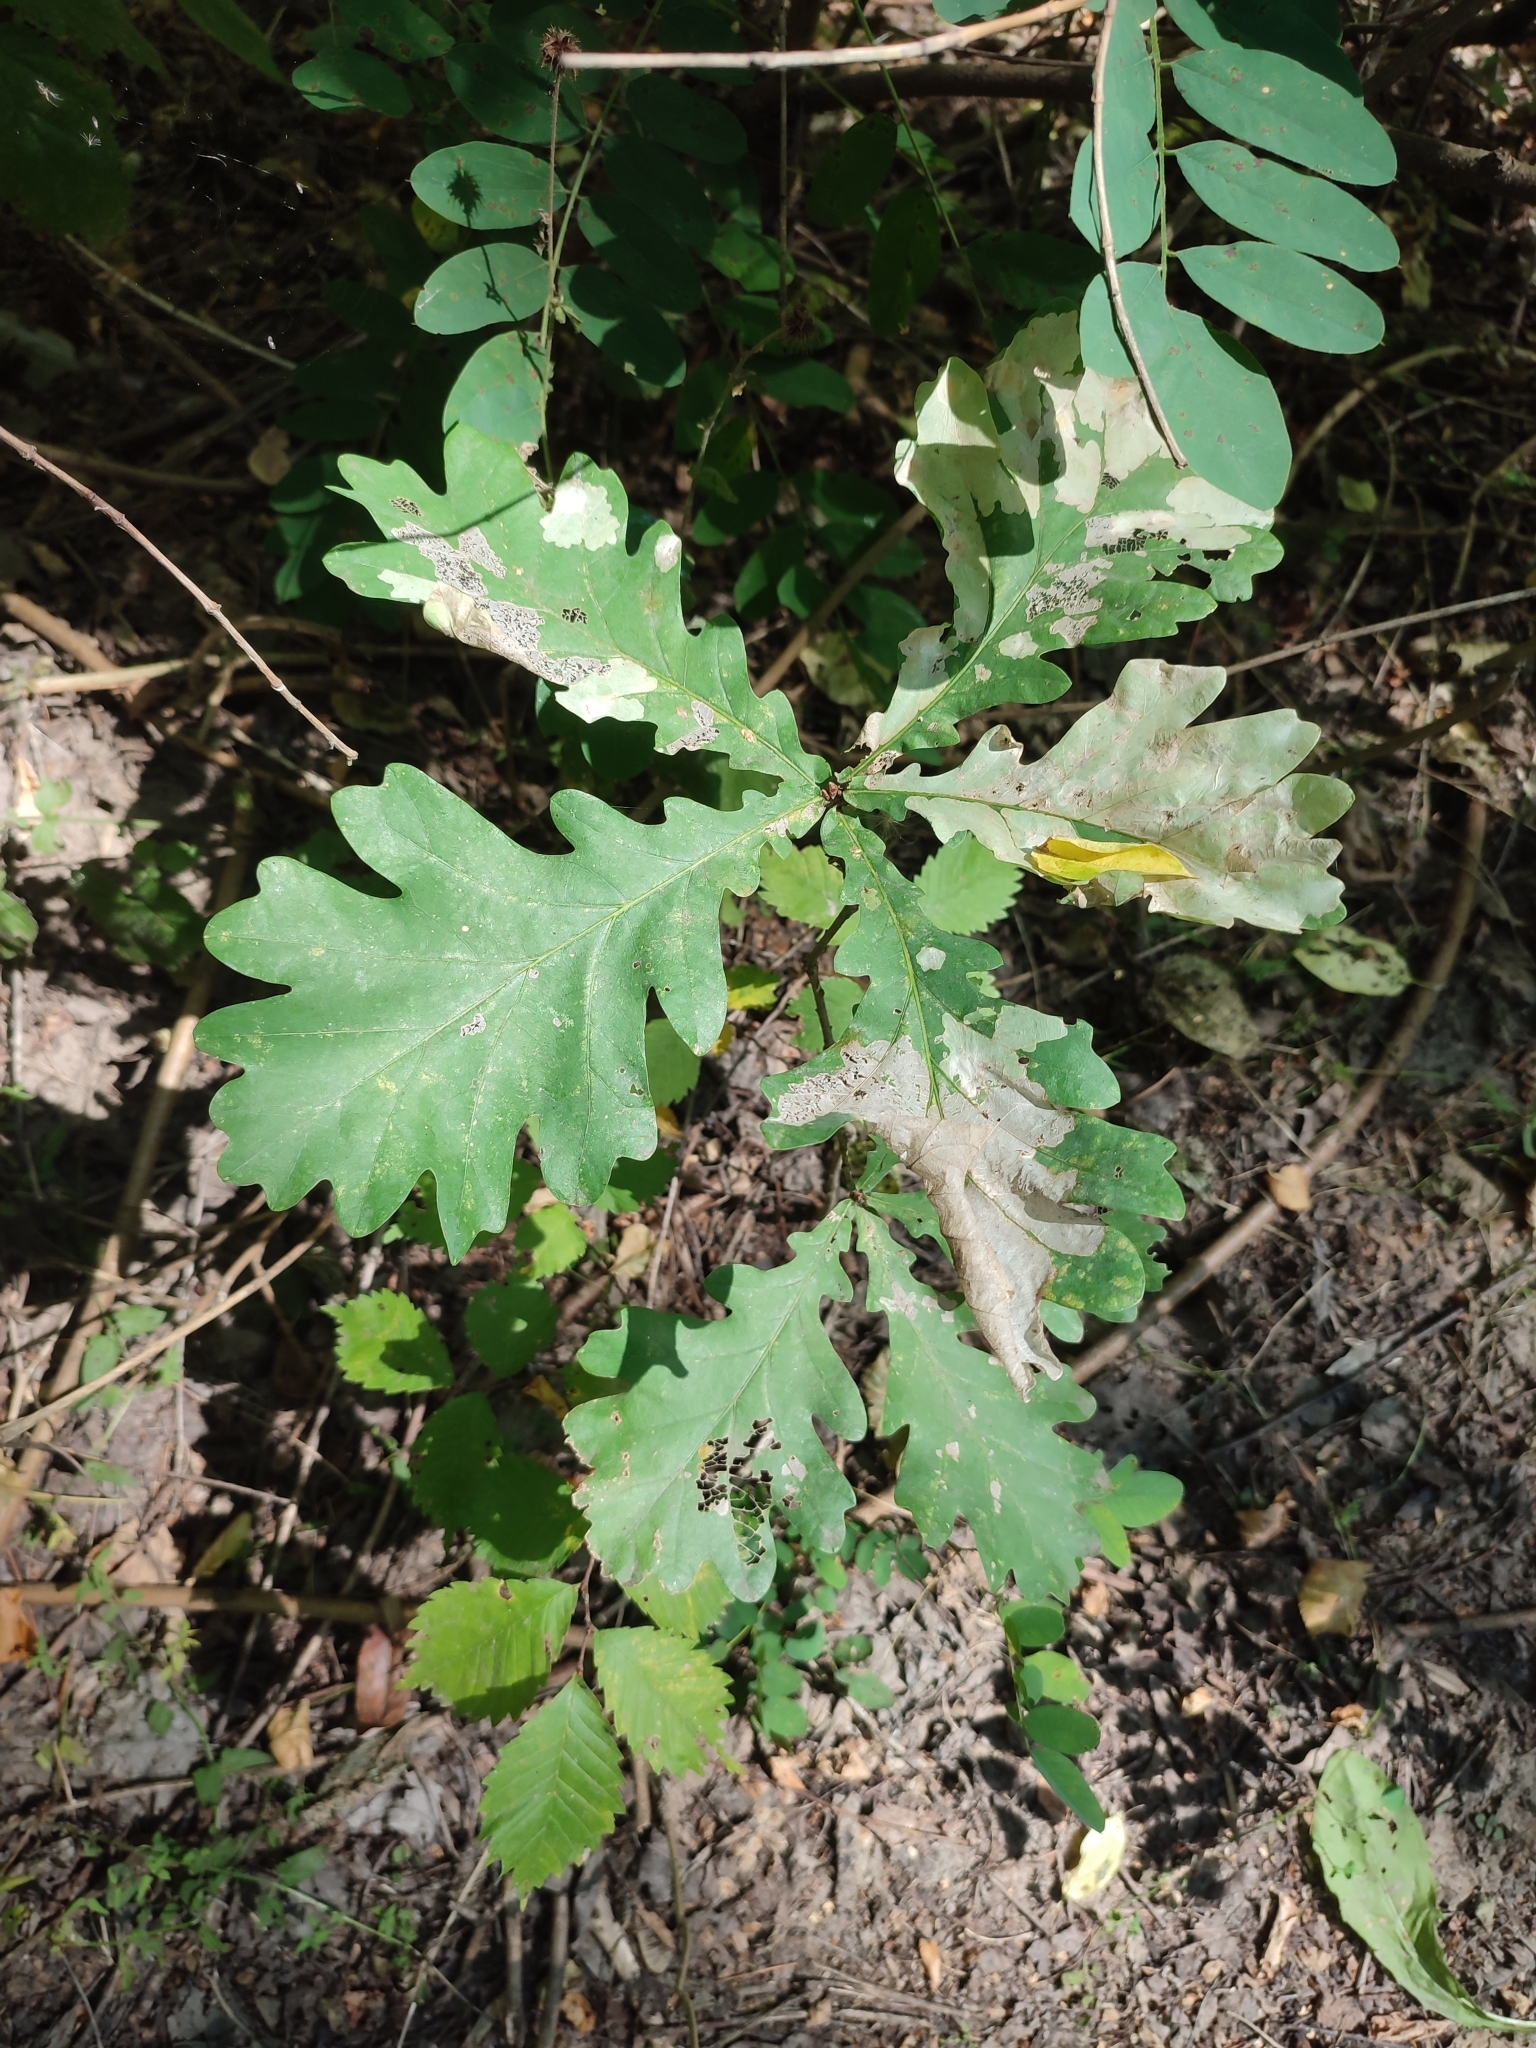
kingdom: Plantae
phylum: Tracheophyta
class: Magnoliopsida
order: Fagales
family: Fagaceae
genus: Quercus
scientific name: Quercus robur
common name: Pedunculate oak
